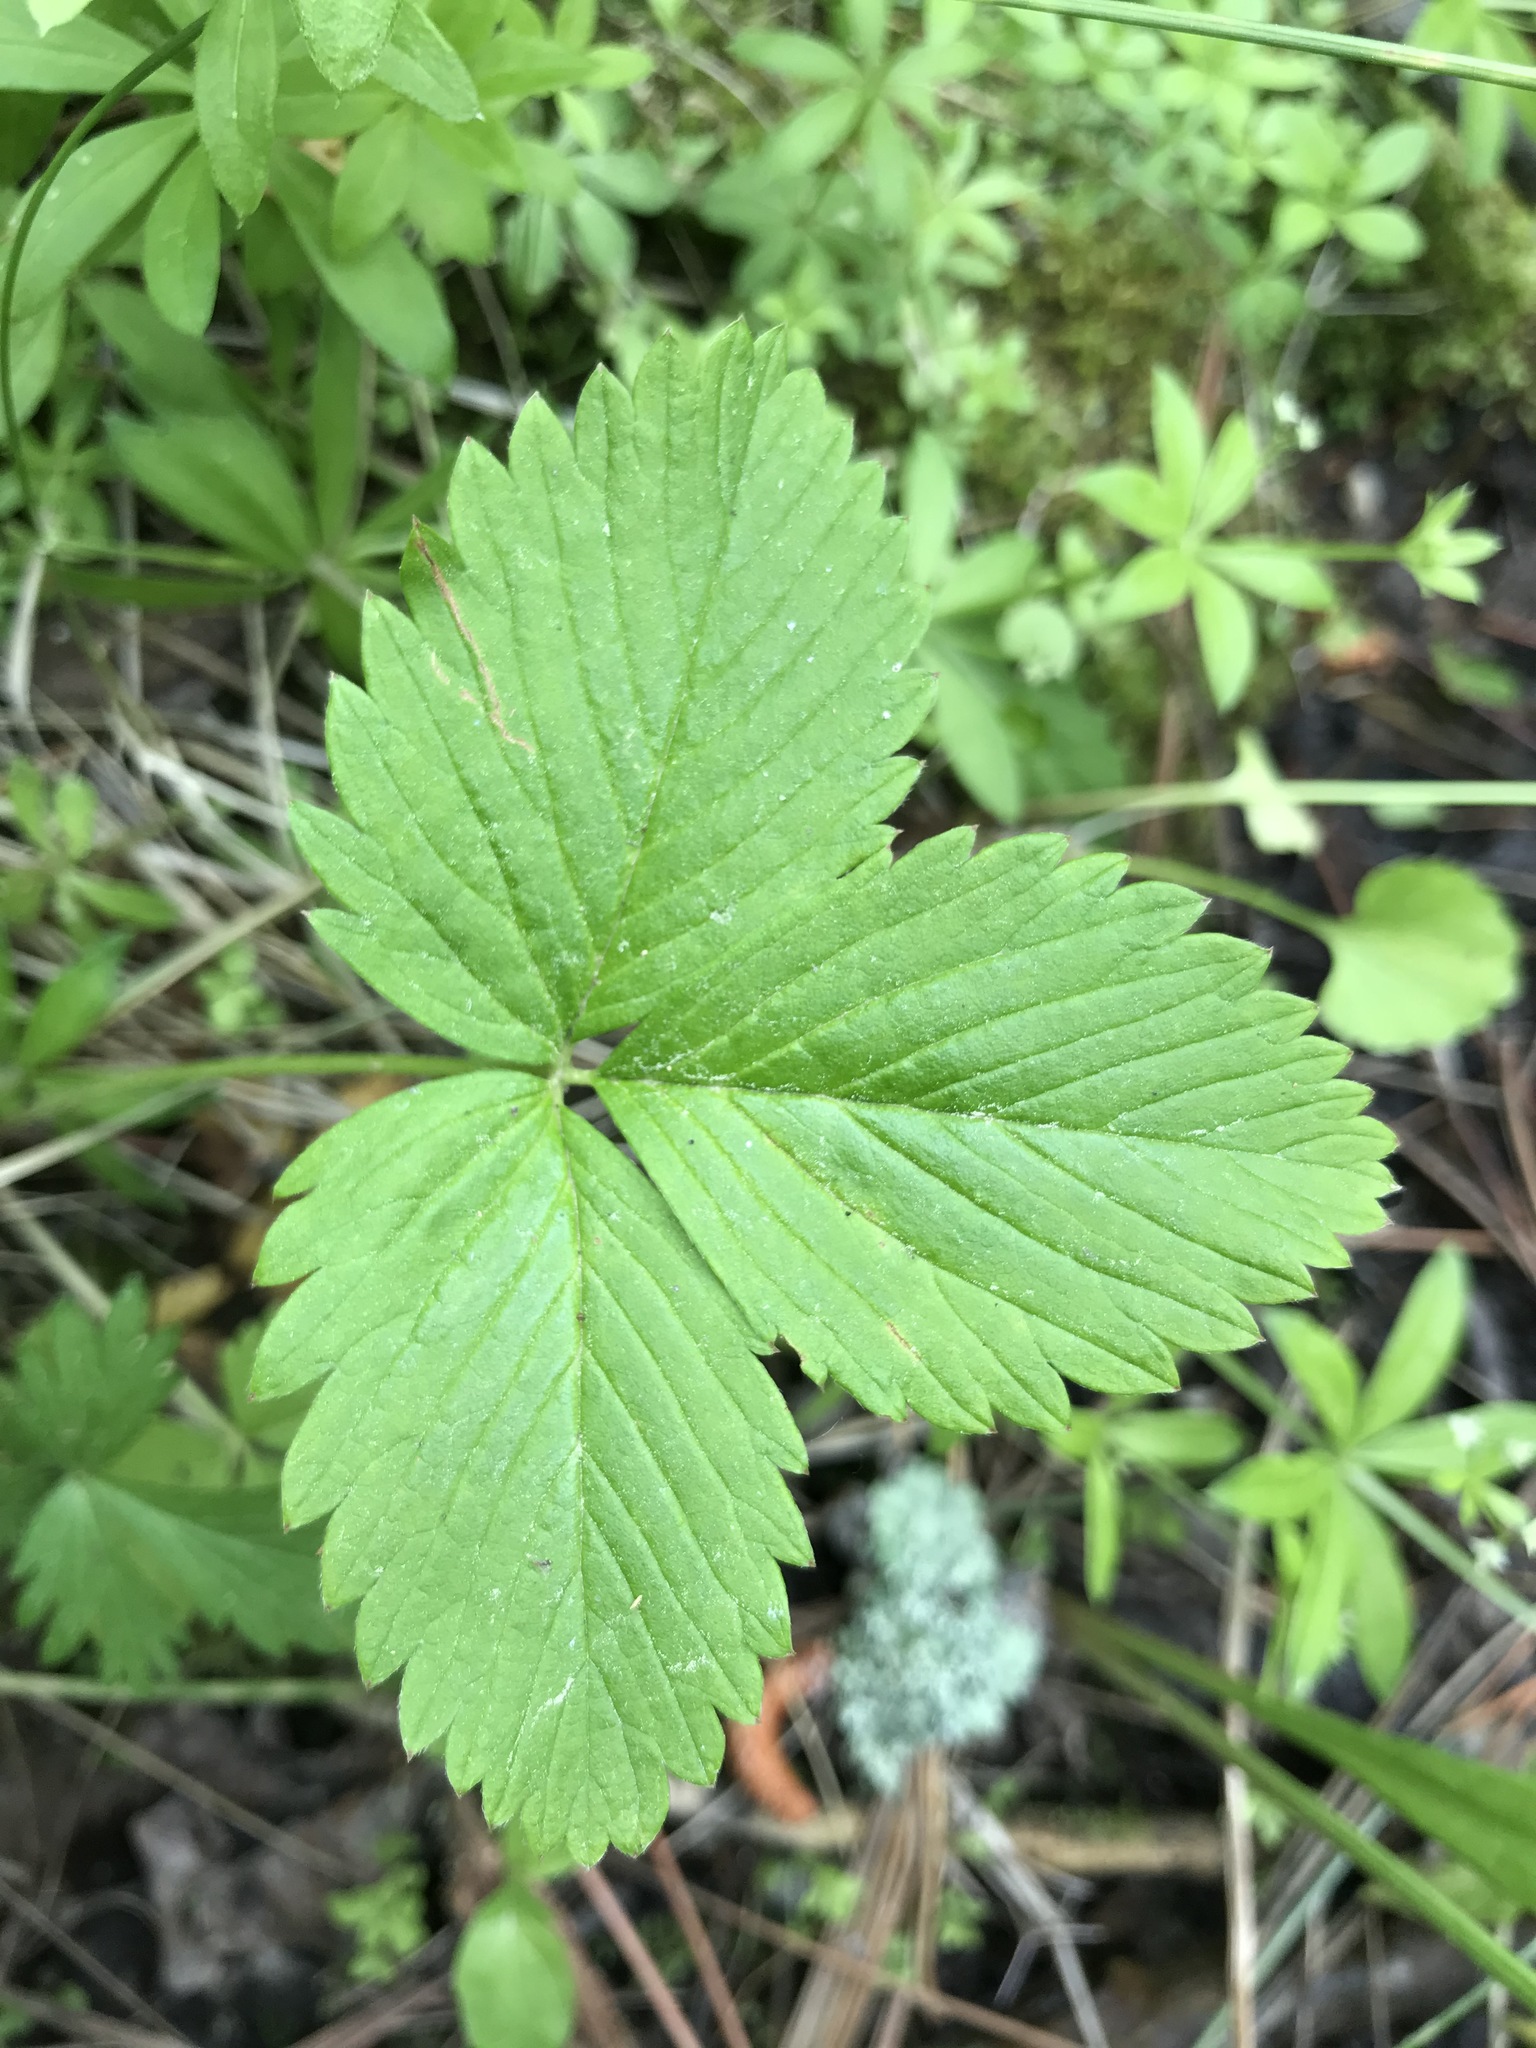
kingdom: Plantae
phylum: Tracheophyta
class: Magnoliopsida
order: Rosales
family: Rosaceae
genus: Fragaria
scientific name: Fragaria vesca
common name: Wild strawberry
